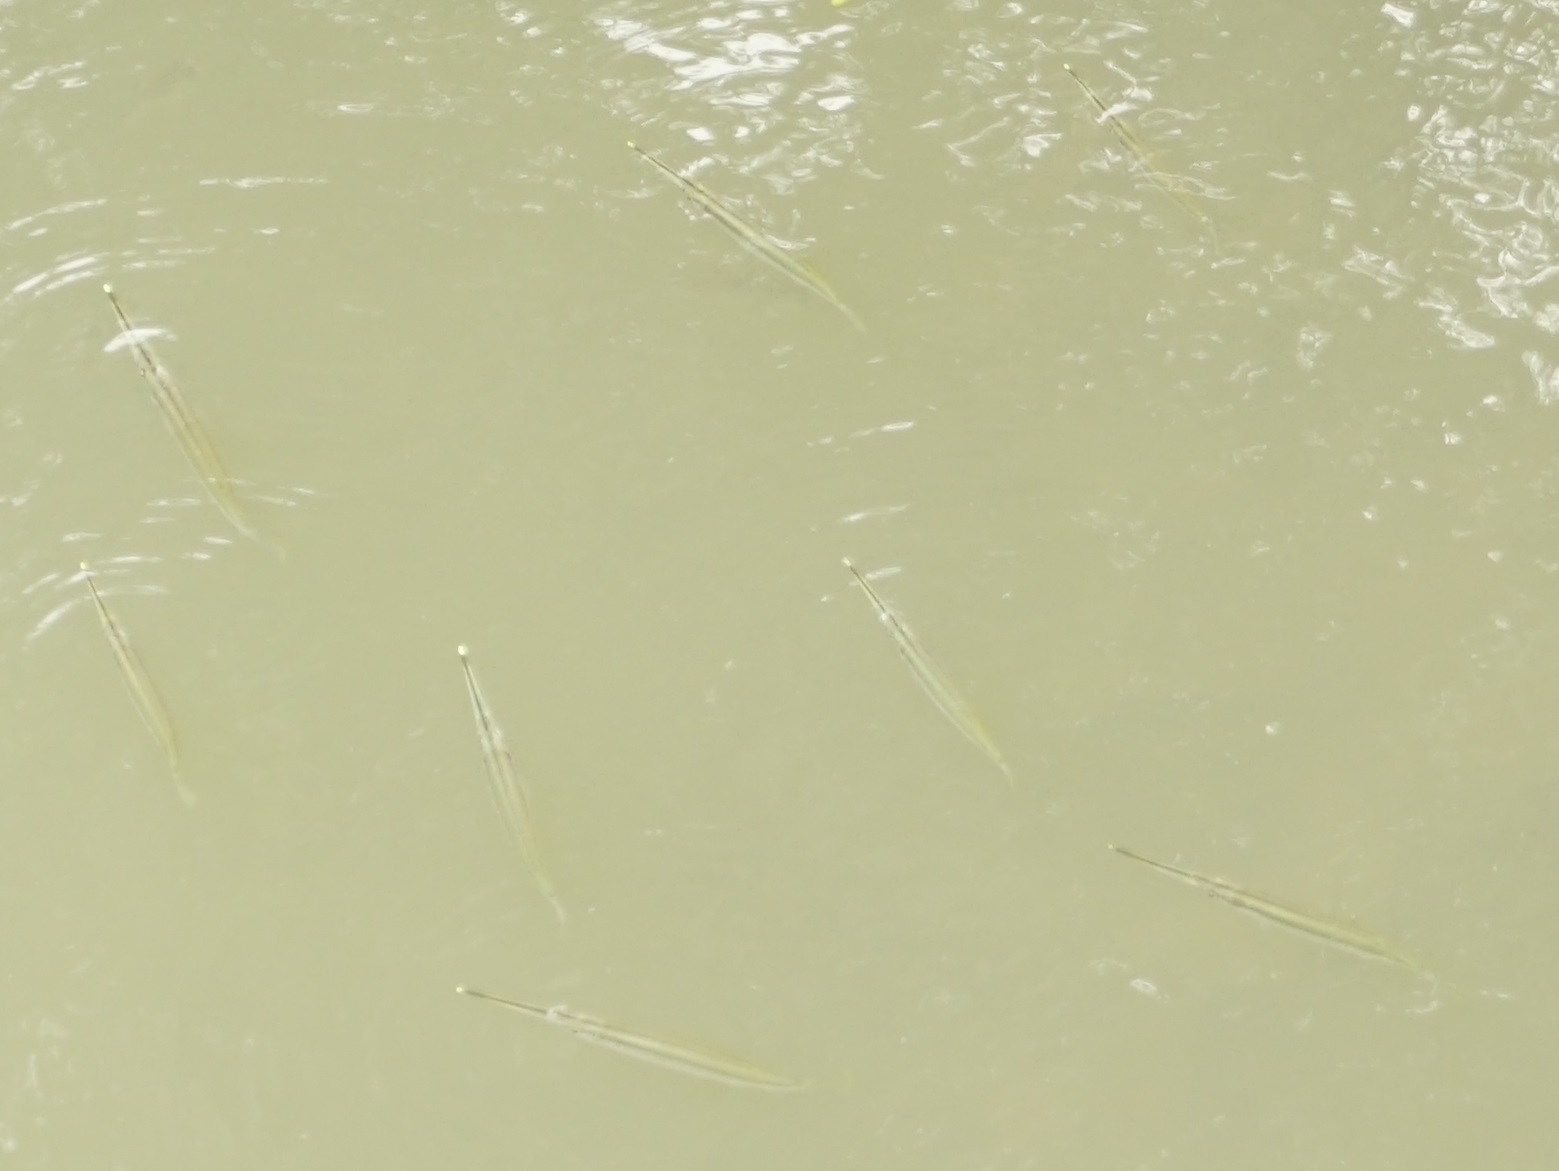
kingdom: Animalia
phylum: Chordata
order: Beloniformes
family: Zenarchopteridae
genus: Zenarchopterus
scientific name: Zenarchopterus buffonis
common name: Buffon's river-garfish
